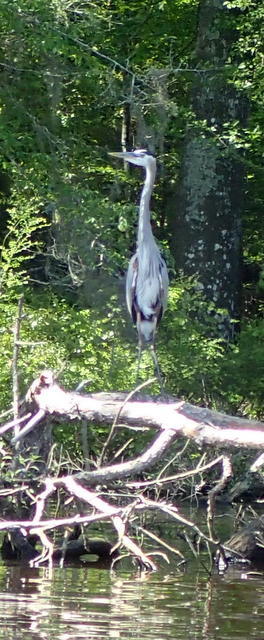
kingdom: Animalia
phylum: Chordata
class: Aves
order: Pelecaniformes
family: Ardeidae
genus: Ardea
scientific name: Ardea herodias
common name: Great blue heron
